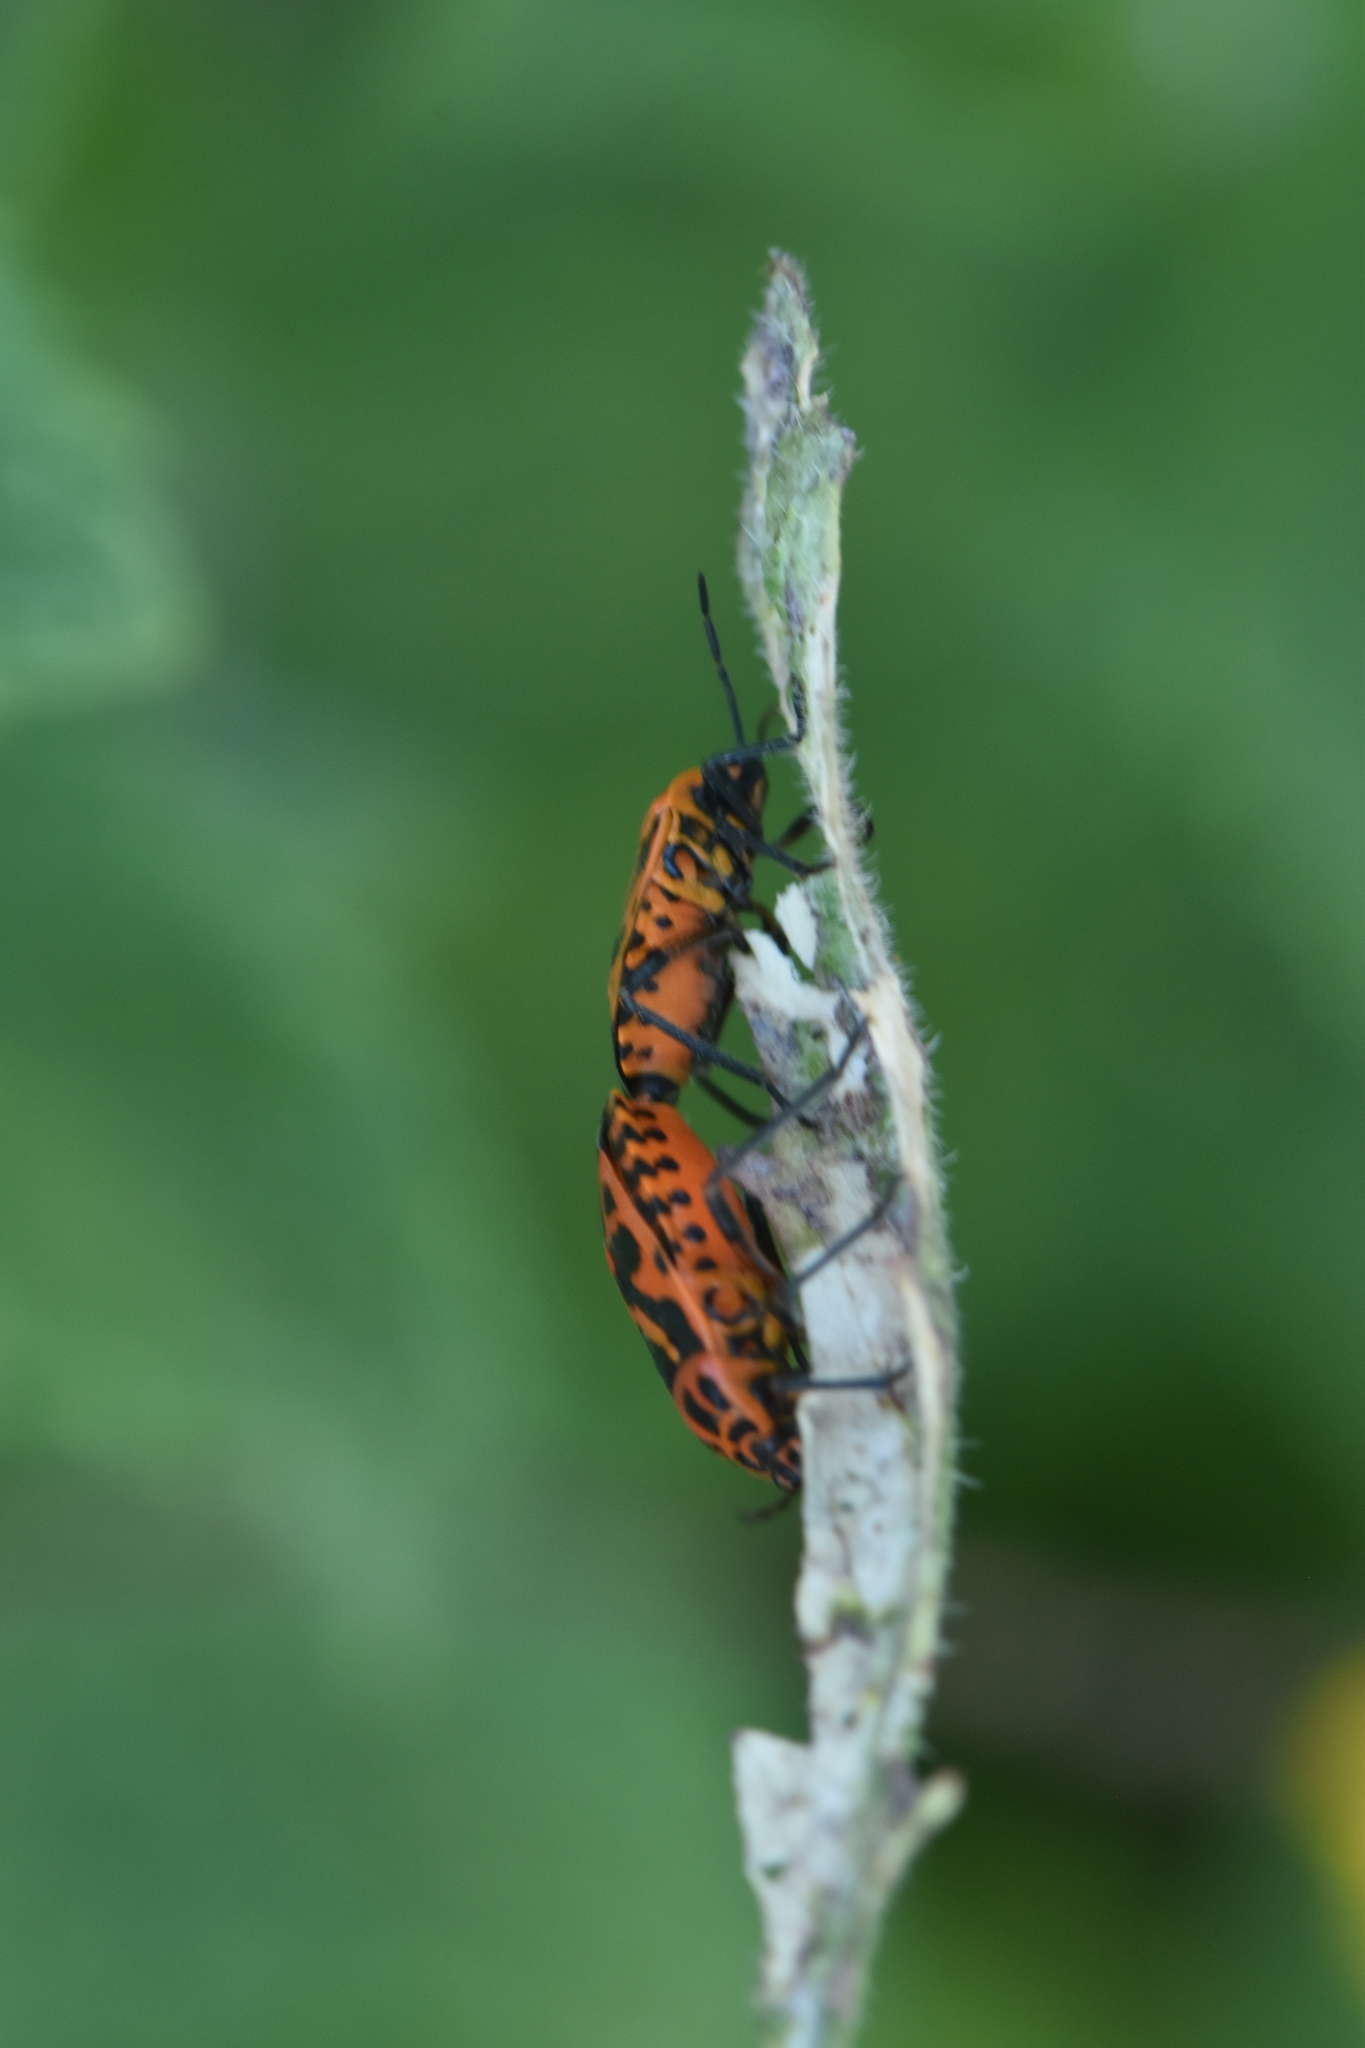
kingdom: Animalia
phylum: Arthropoda
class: Insecta
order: Hemiptera
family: Pentatomidae
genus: Eurydema
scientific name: Eurydema ventralis
